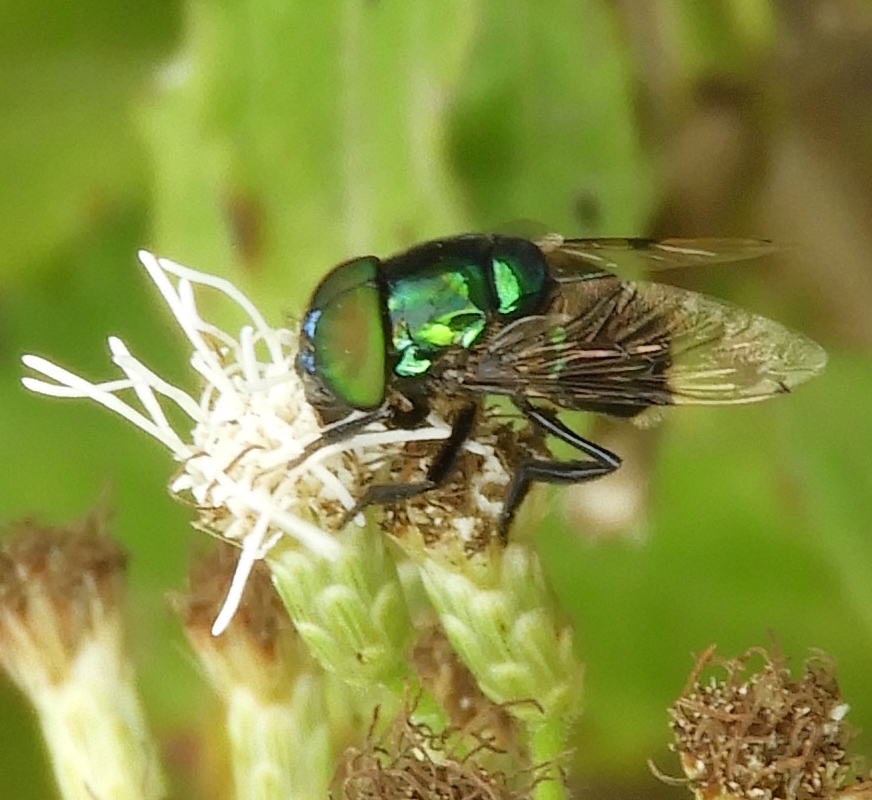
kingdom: Animalia
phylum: Arthropoda
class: Insecta
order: Diptera
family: Syrphidae
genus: Ornidia
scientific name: Ornidia obesa
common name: Syrphid fly
